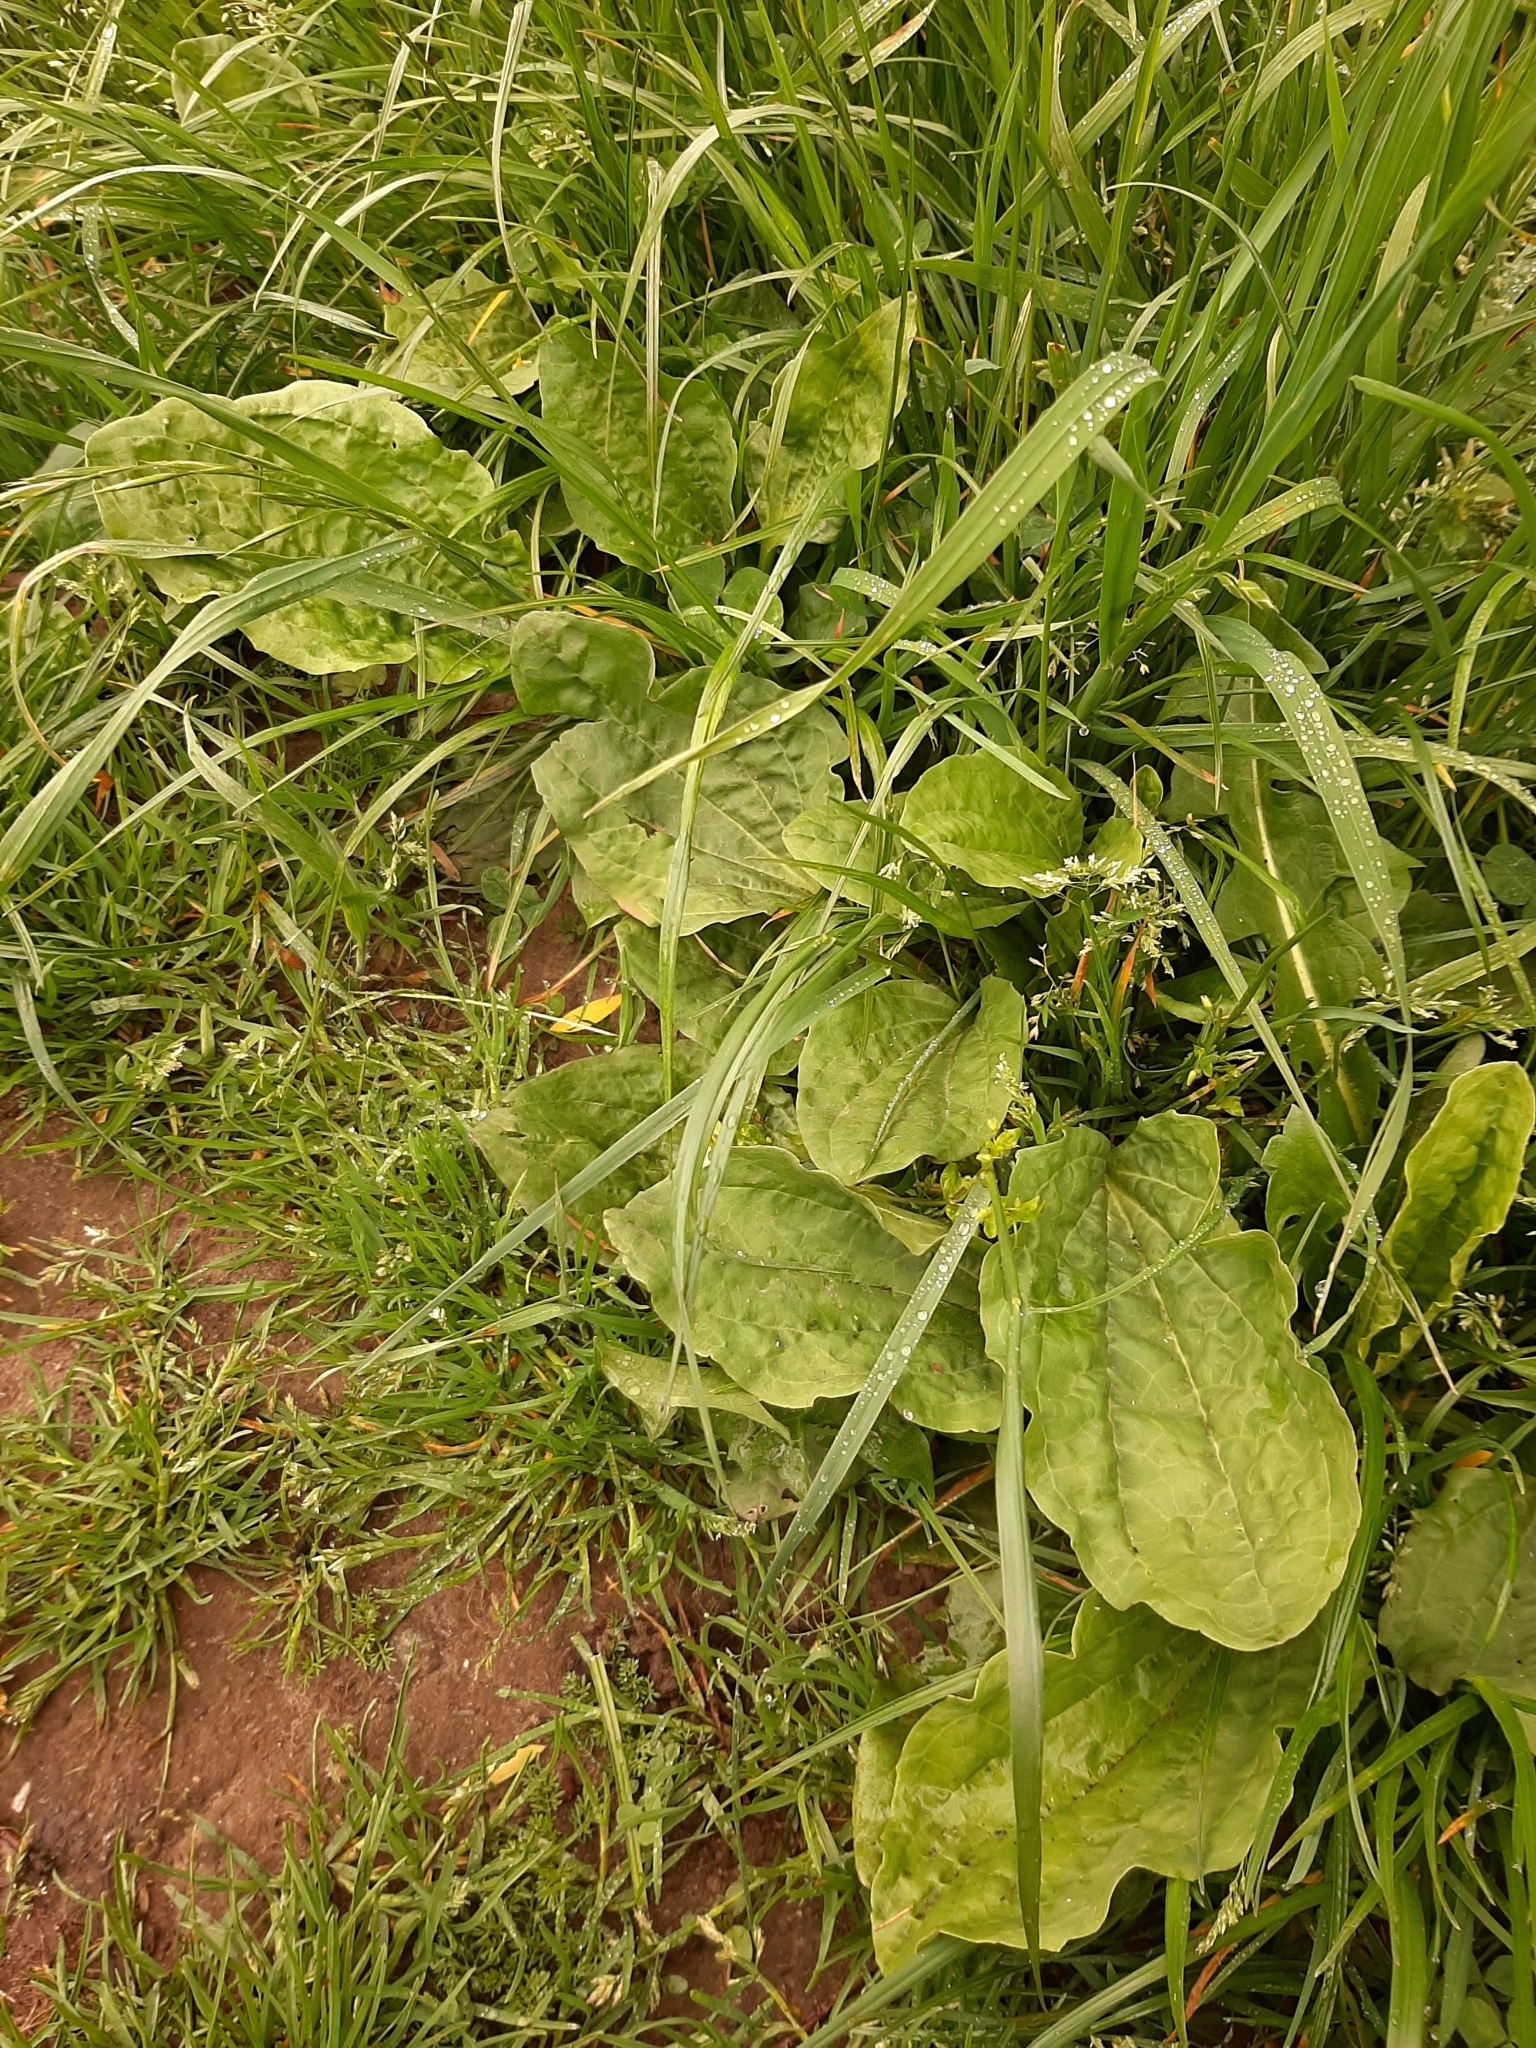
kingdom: Plantae
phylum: Tracheophyta
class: Magnoliopsida
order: Lamiales
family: Plantaginaceae
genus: Plantago
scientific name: Plantago major
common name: Common plantain
